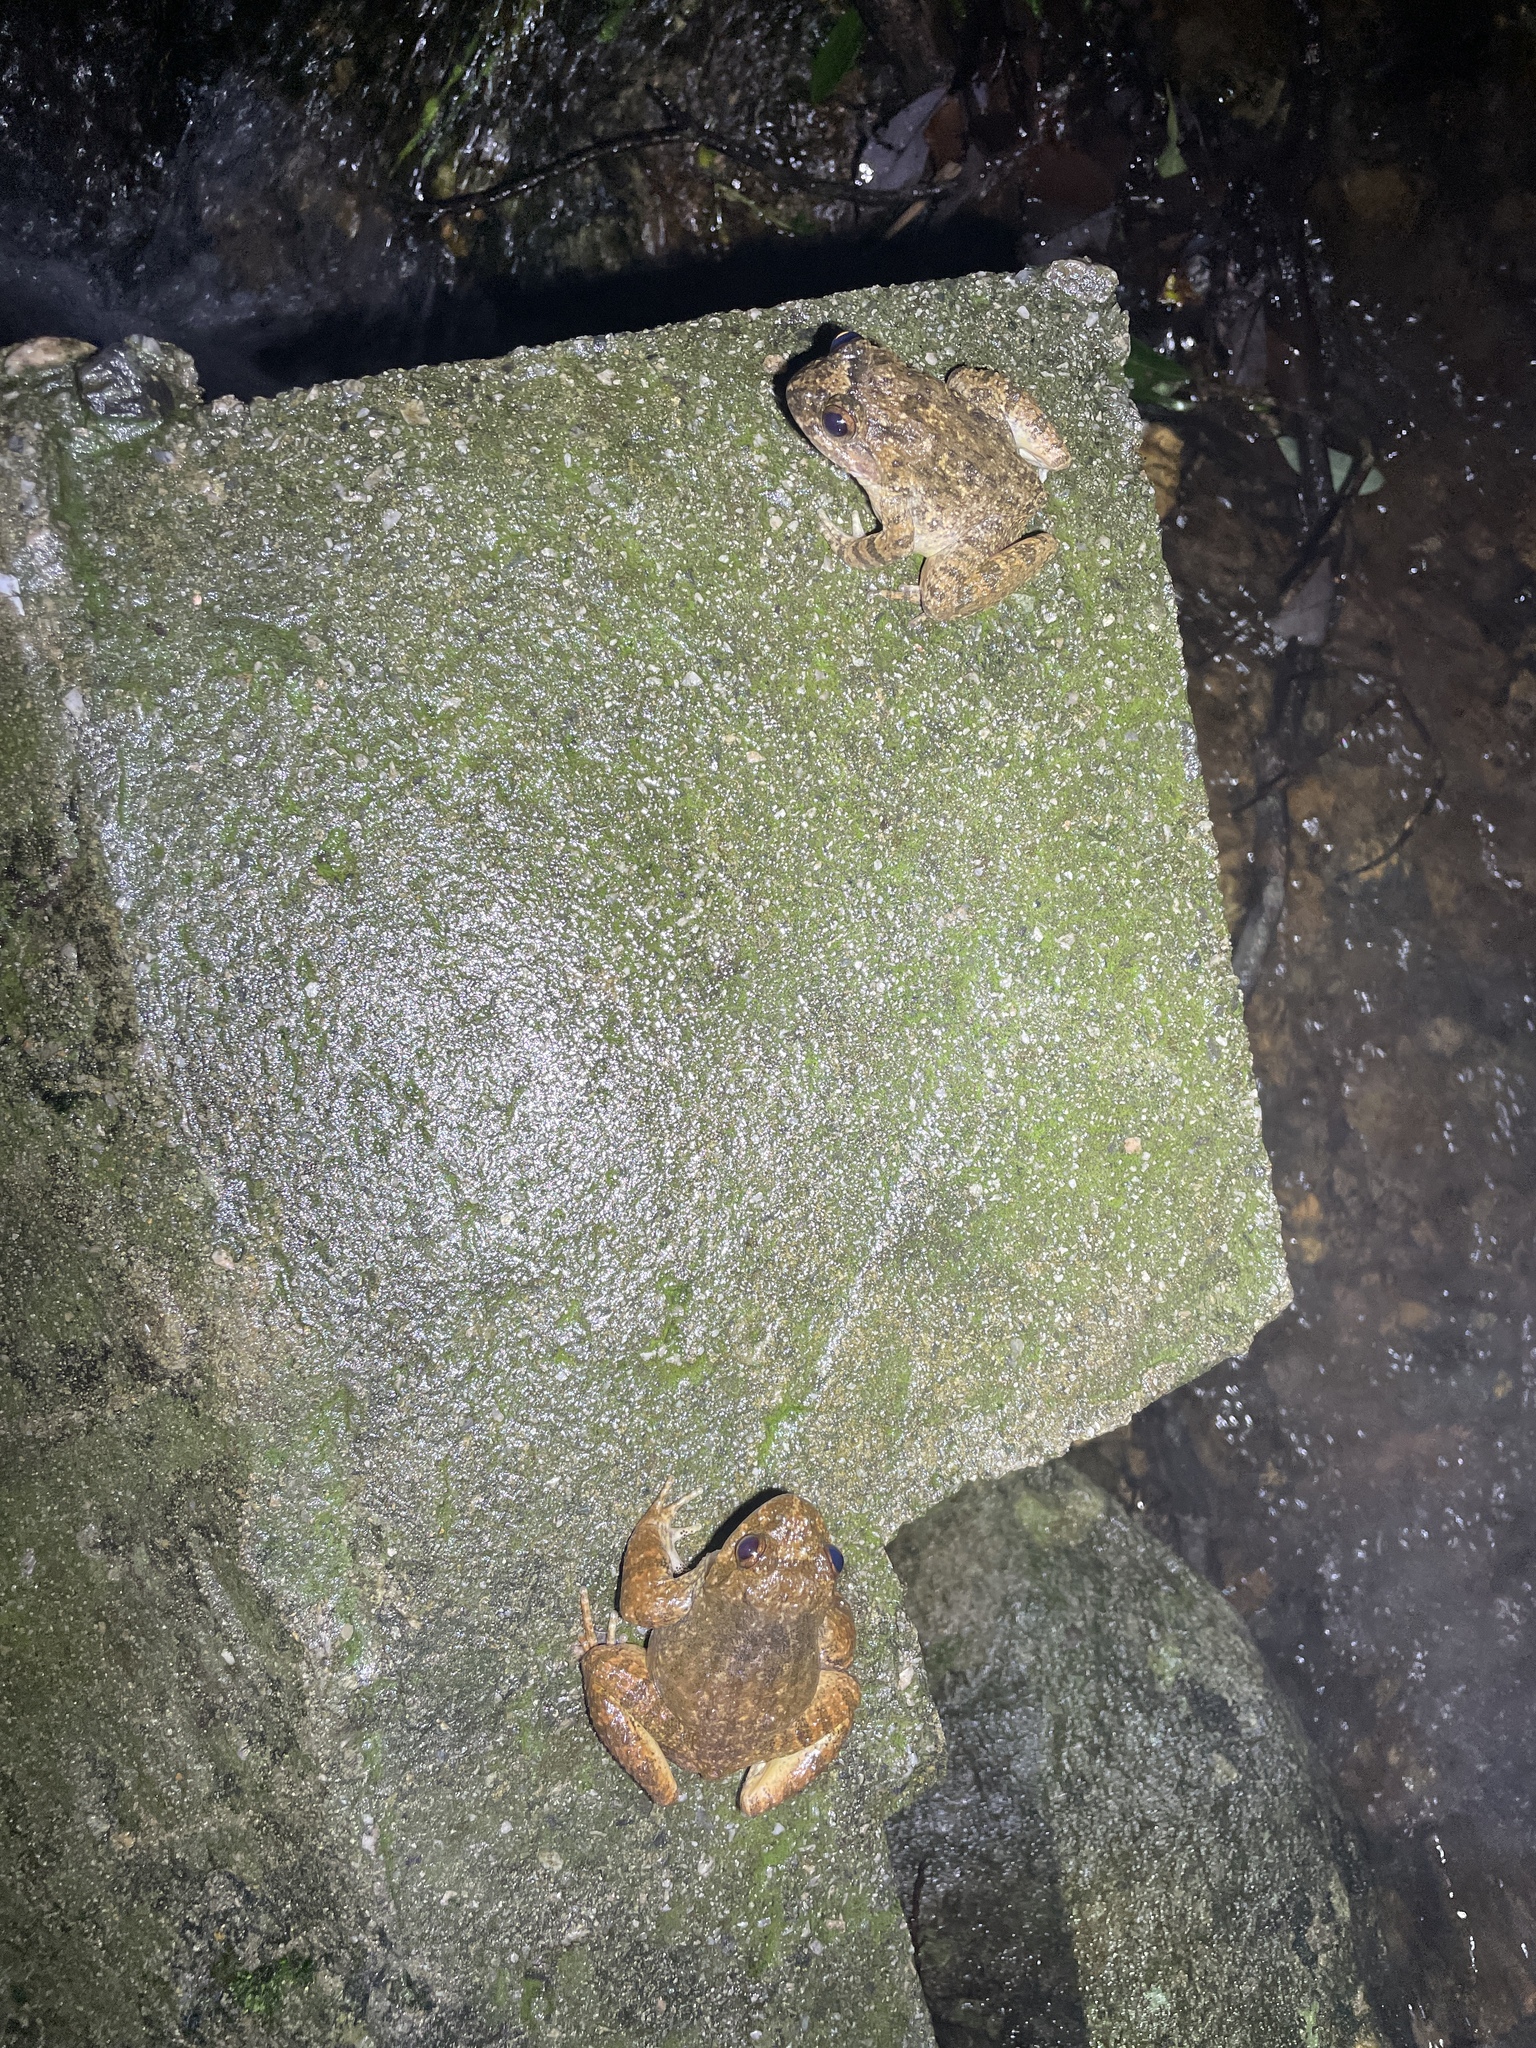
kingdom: Animalia
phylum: Chordata
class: Amphibia
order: Anura
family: Dicroglossidae
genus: Quasipaa
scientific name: Quasipaa exilispinosa
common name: Hong kong paa frog
